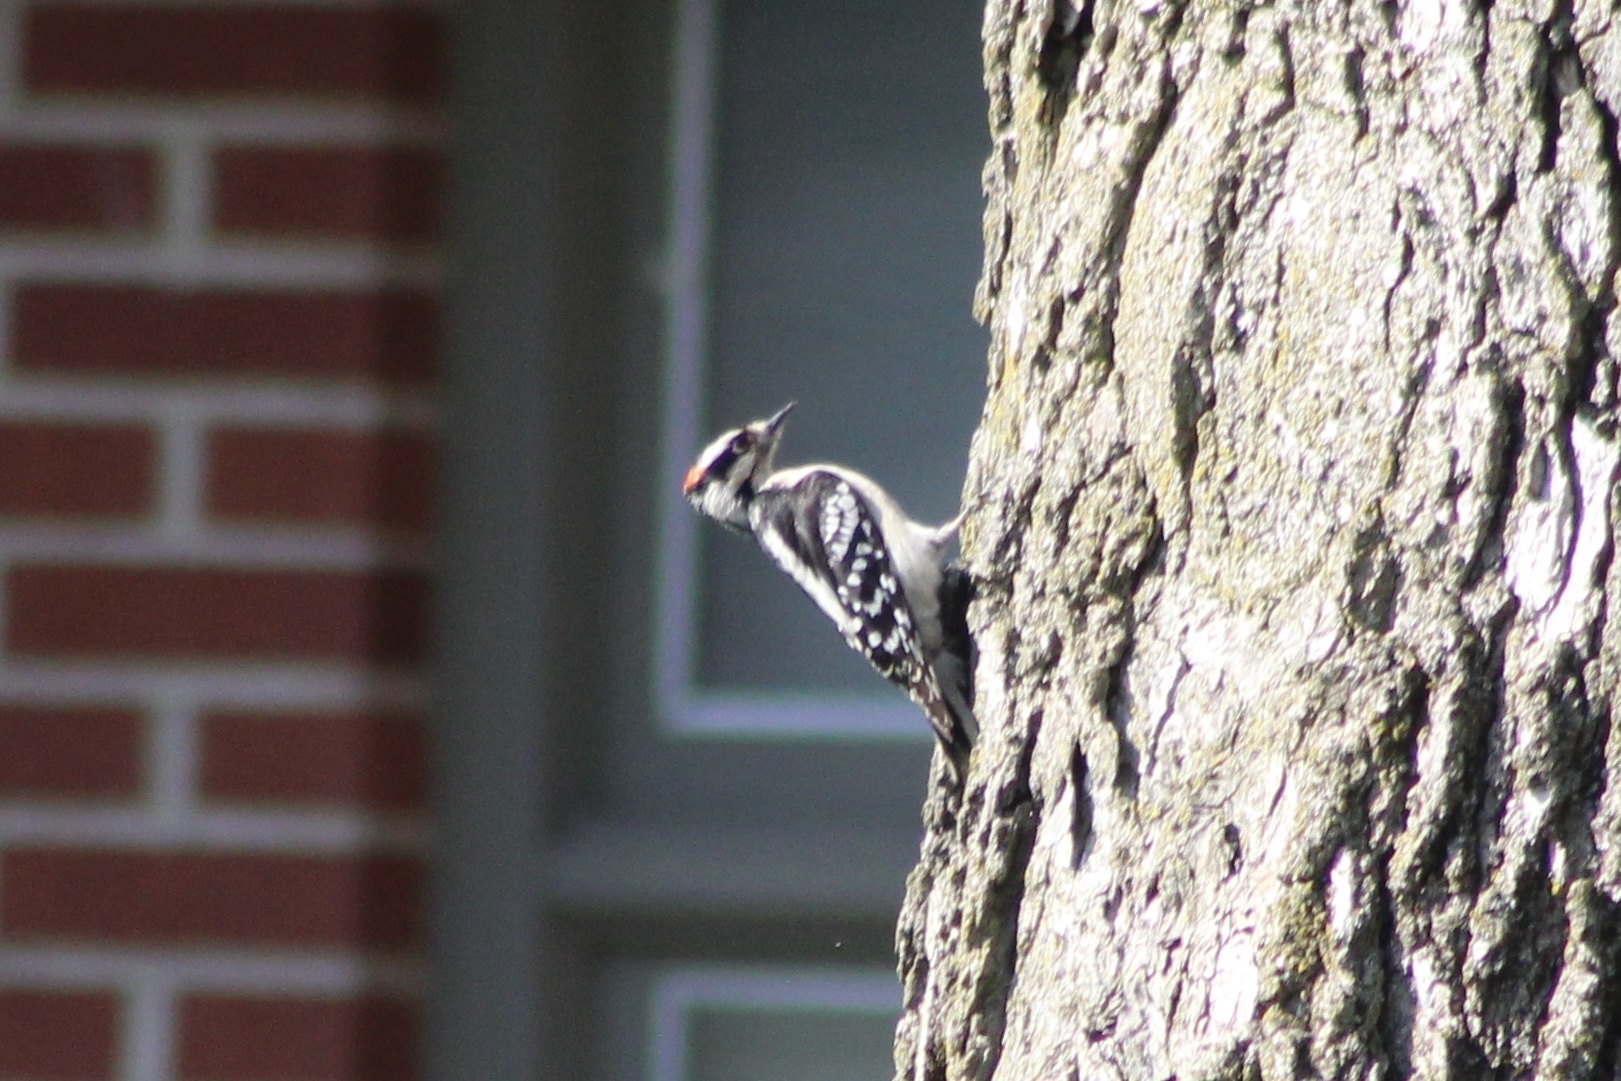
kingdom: Animalia
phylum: Chordata
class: Aves
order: Piciformes
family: Picidae
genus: Dryobates
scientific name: Dryobates pubescens
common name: Downy woodpecker
